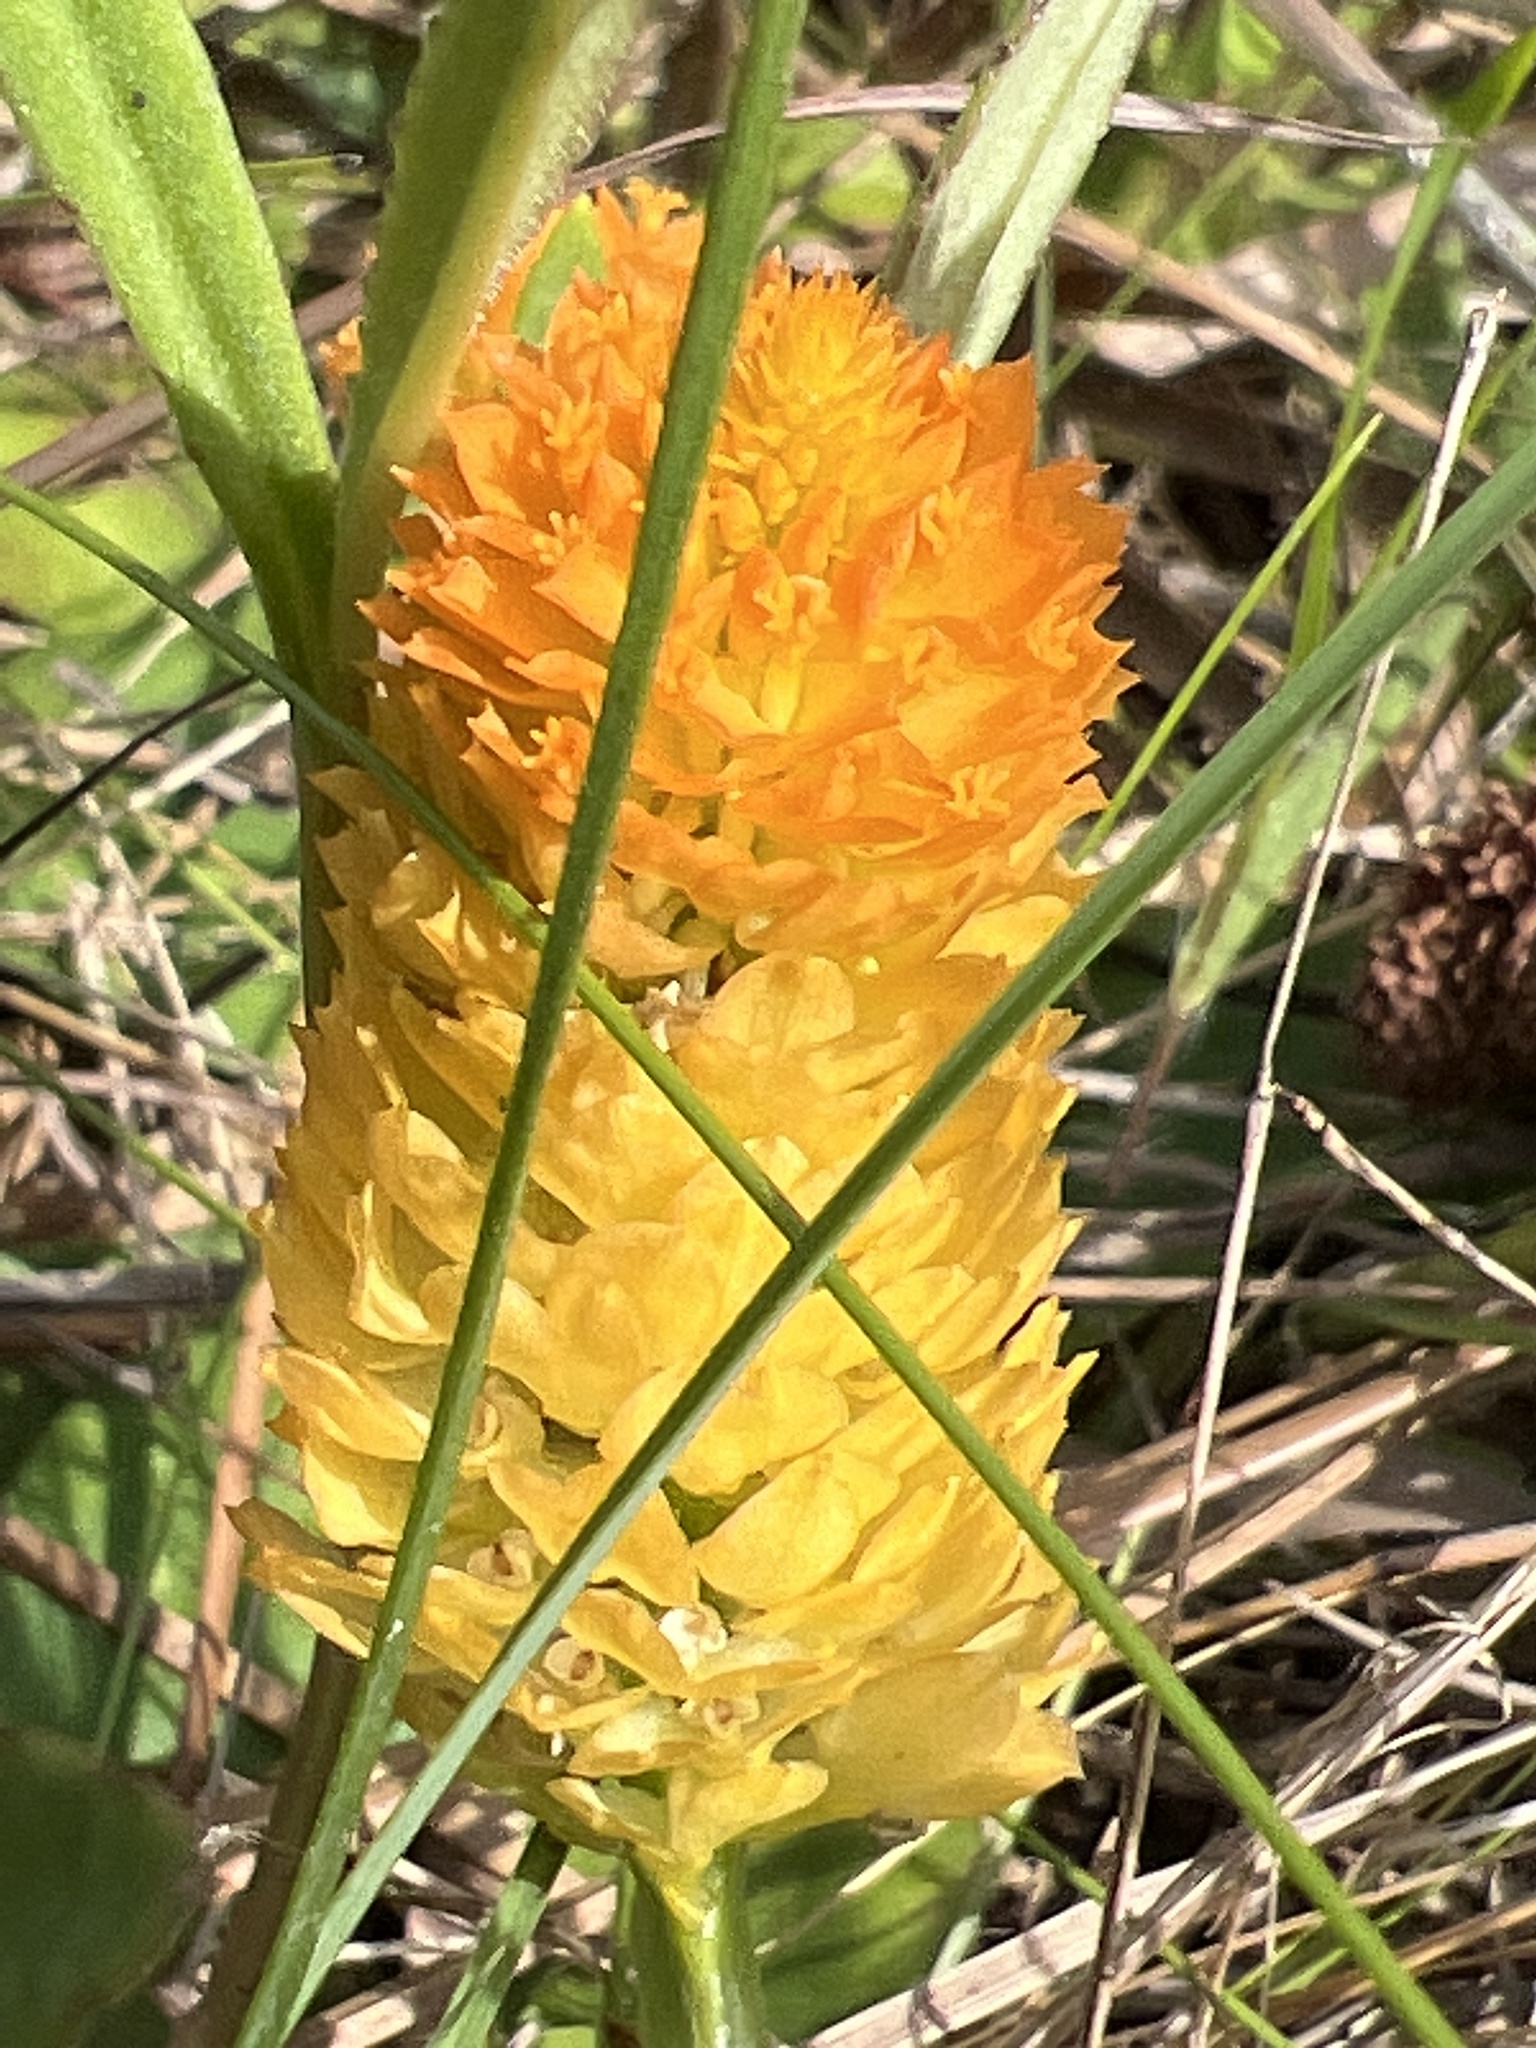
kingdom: Plantae
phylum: Tracheophyta
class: Magnoliopsida
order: Fabales
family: Polygalaceae
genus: Polygala
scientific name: Polygala lutea
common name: Orange milkwort
